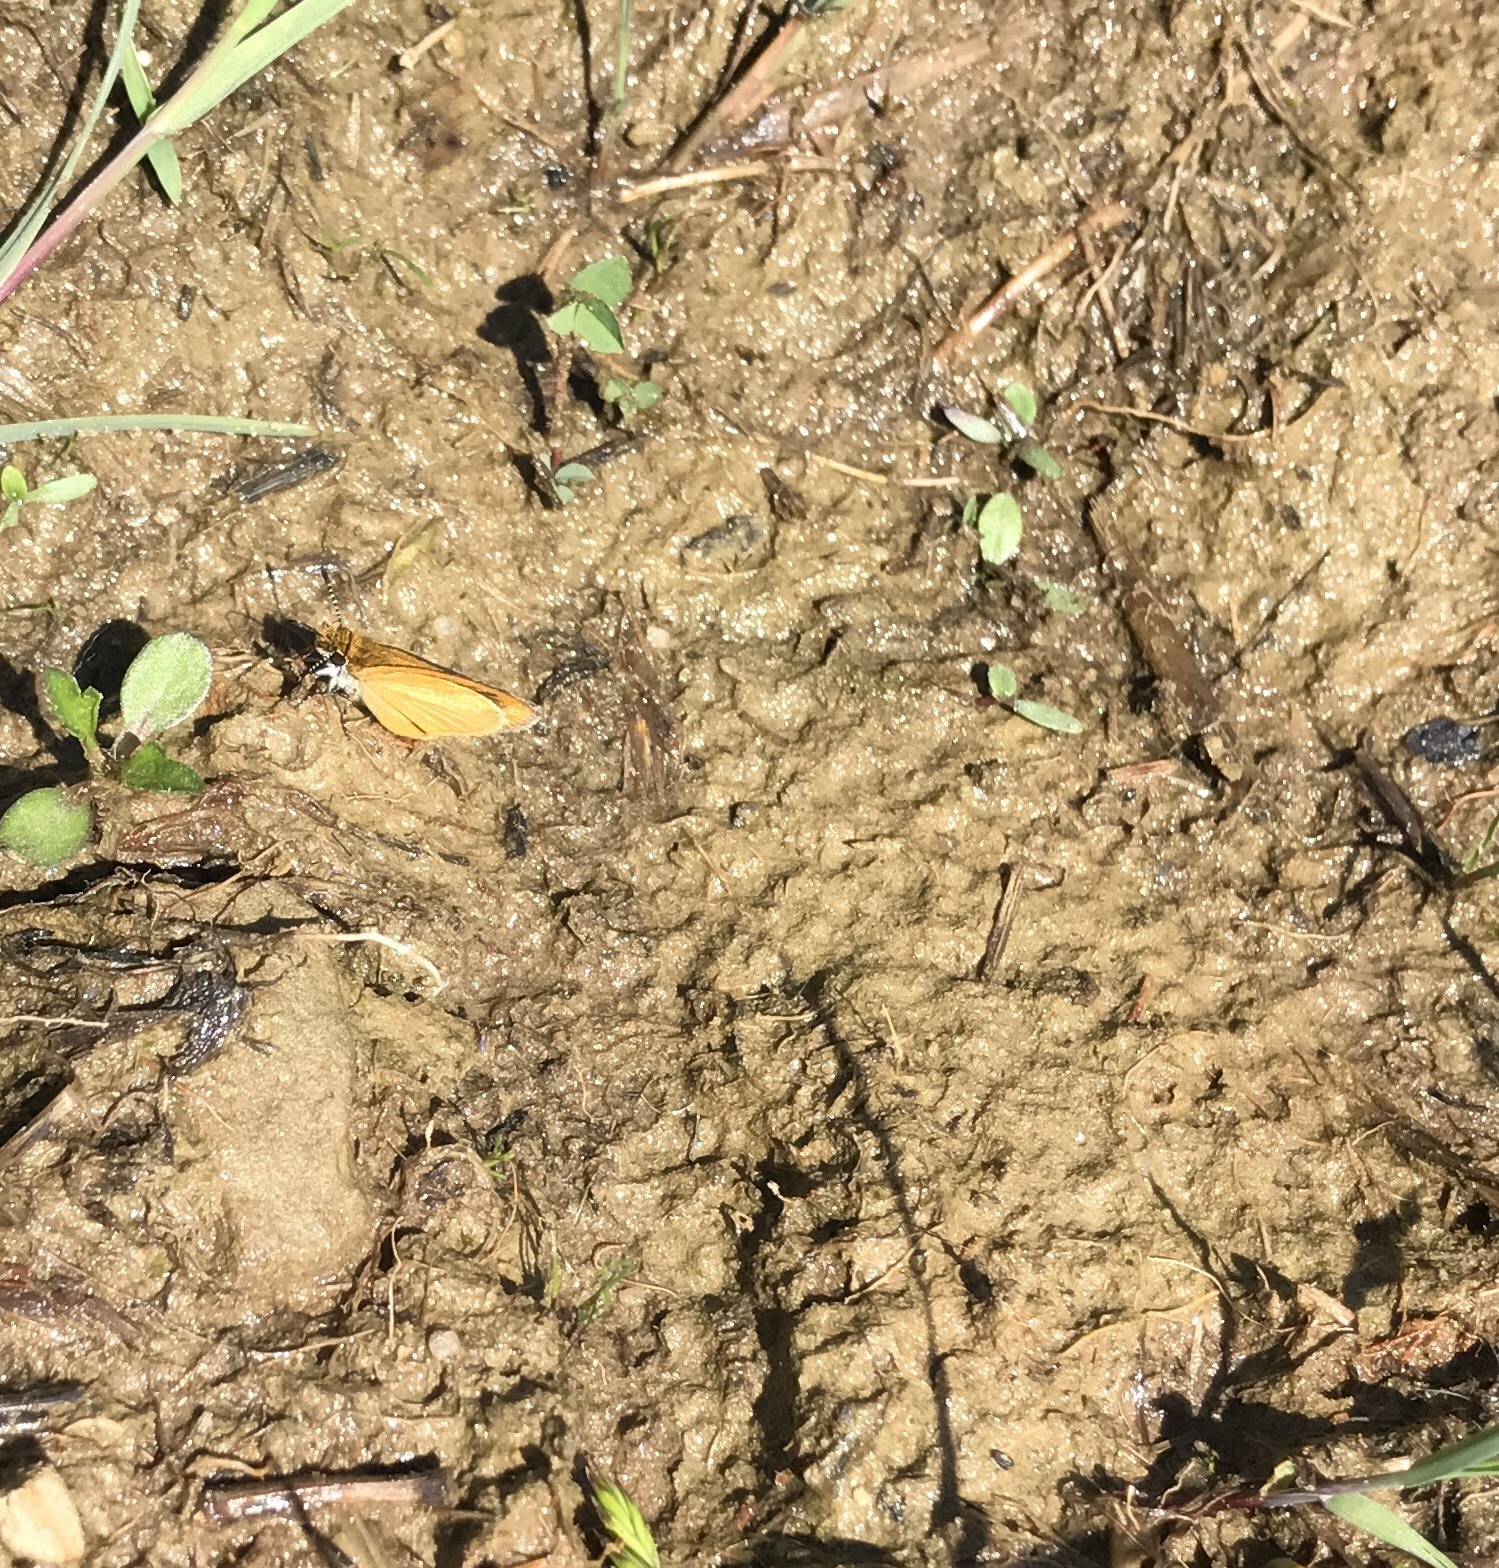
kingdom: Animalia
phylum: Arthropoda
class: Insecta
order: Lepidoptera
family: Hesperiidae
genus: Ancyloxypha
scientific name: Ancyloxypha numitor
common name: Least skipper
